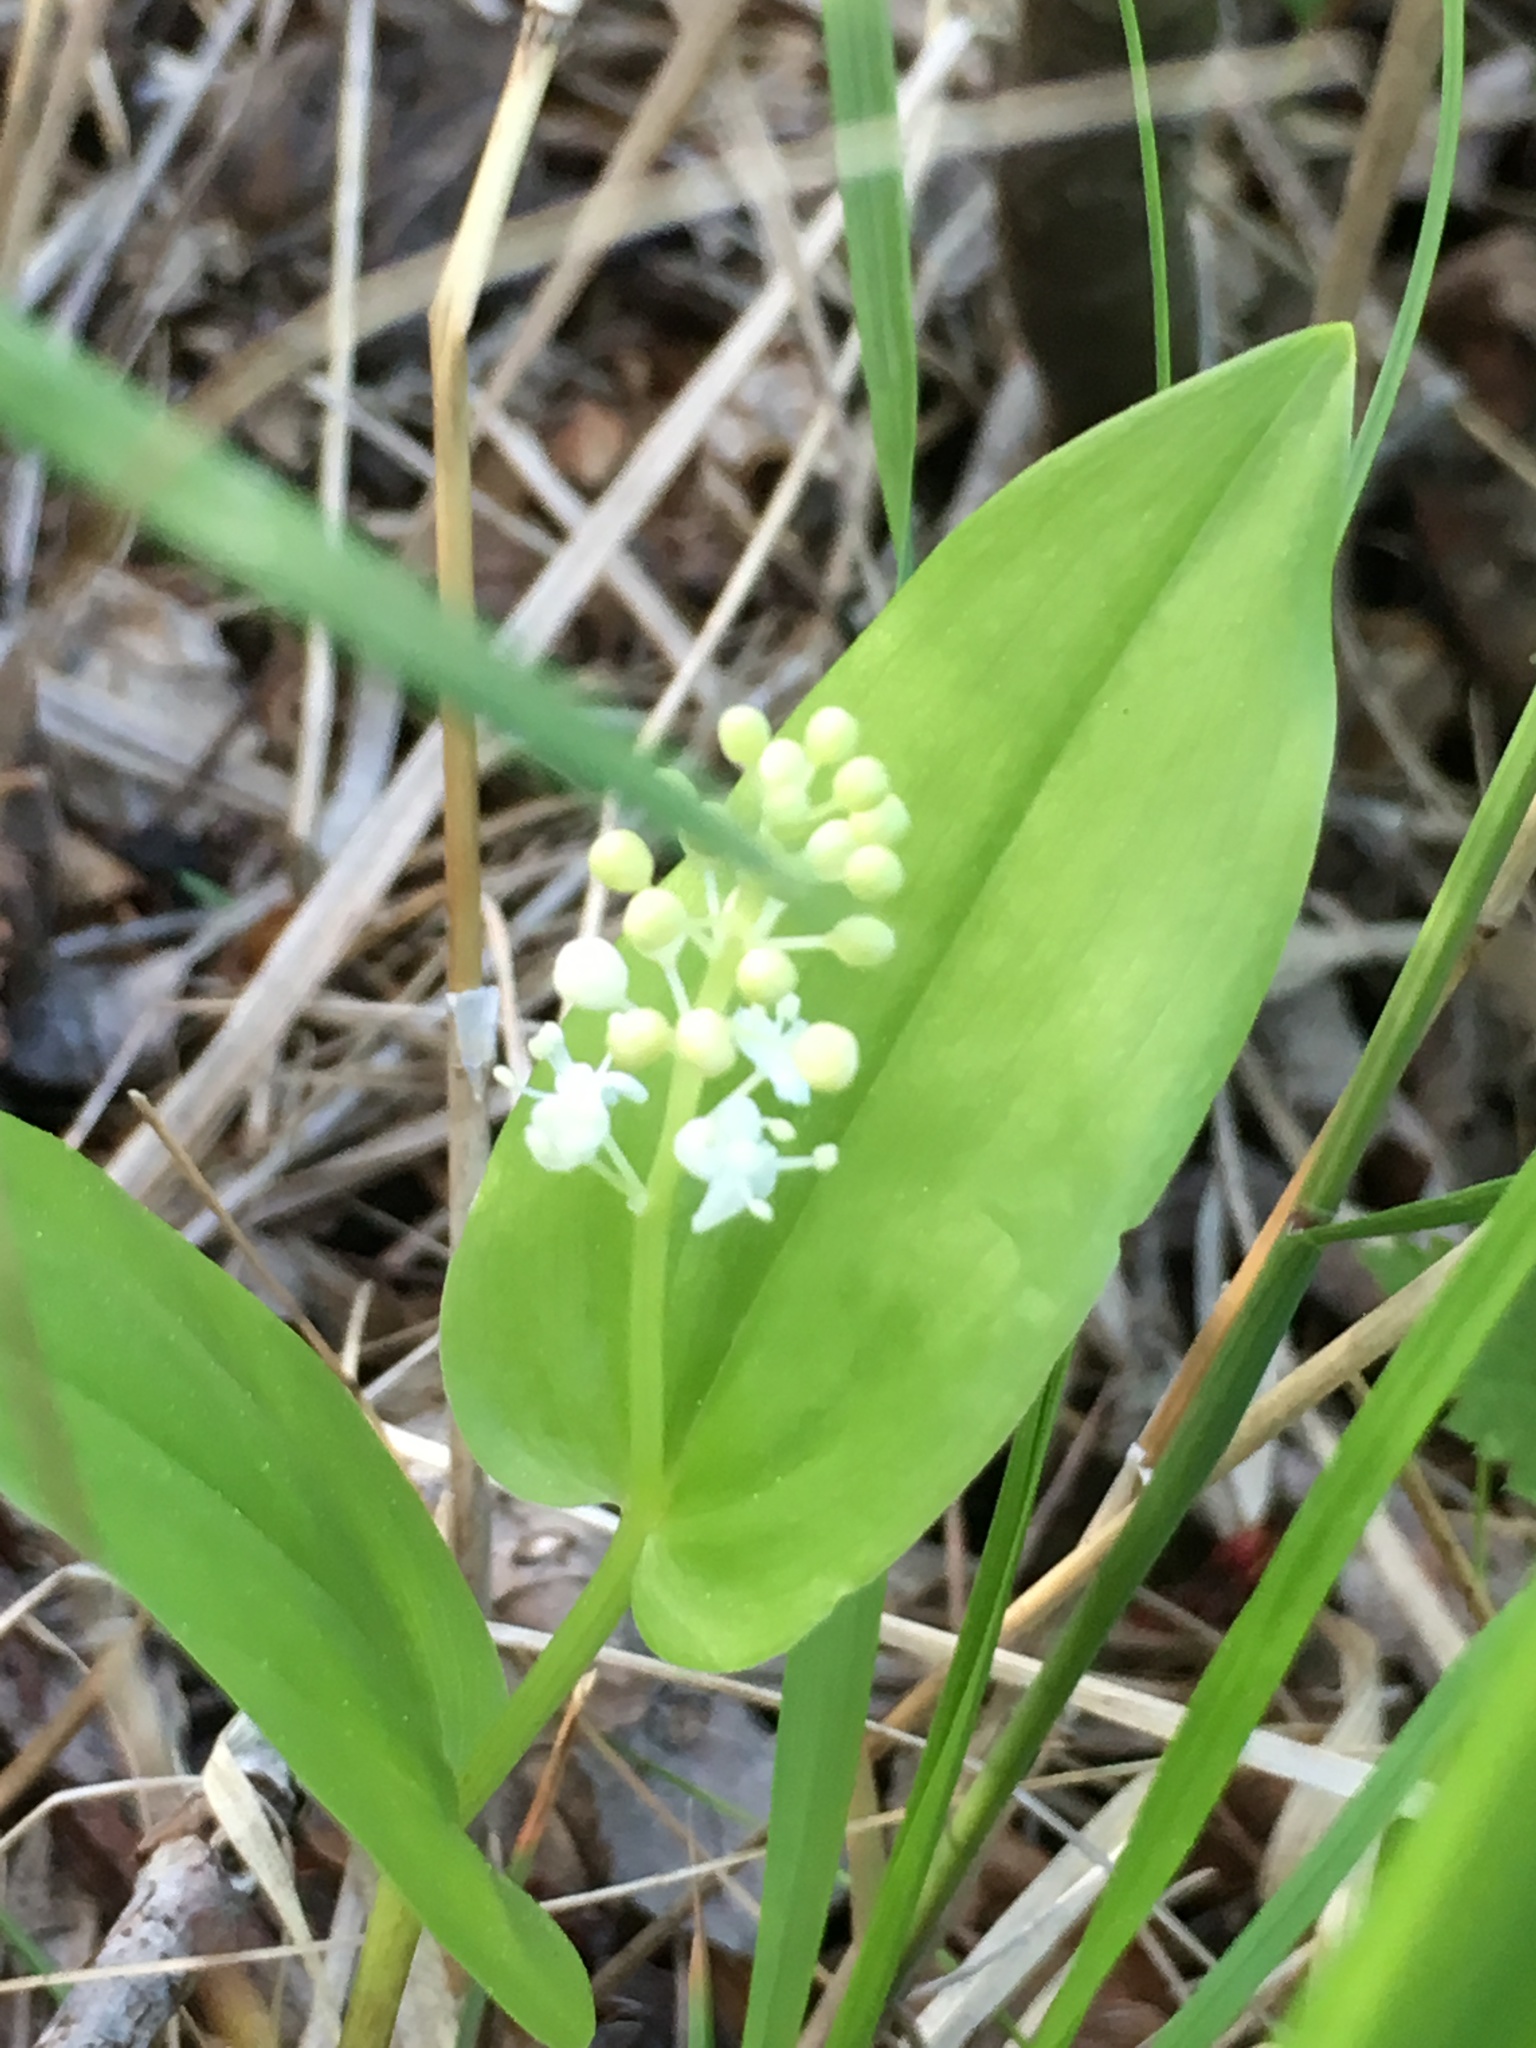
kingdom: Plantae
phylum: Tracheophyta
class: Liliopsida
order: Asparagales
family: Asparagaceae
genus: Maianthemum
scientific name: Maianthemum canadense
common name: False lily-of-the-valley
